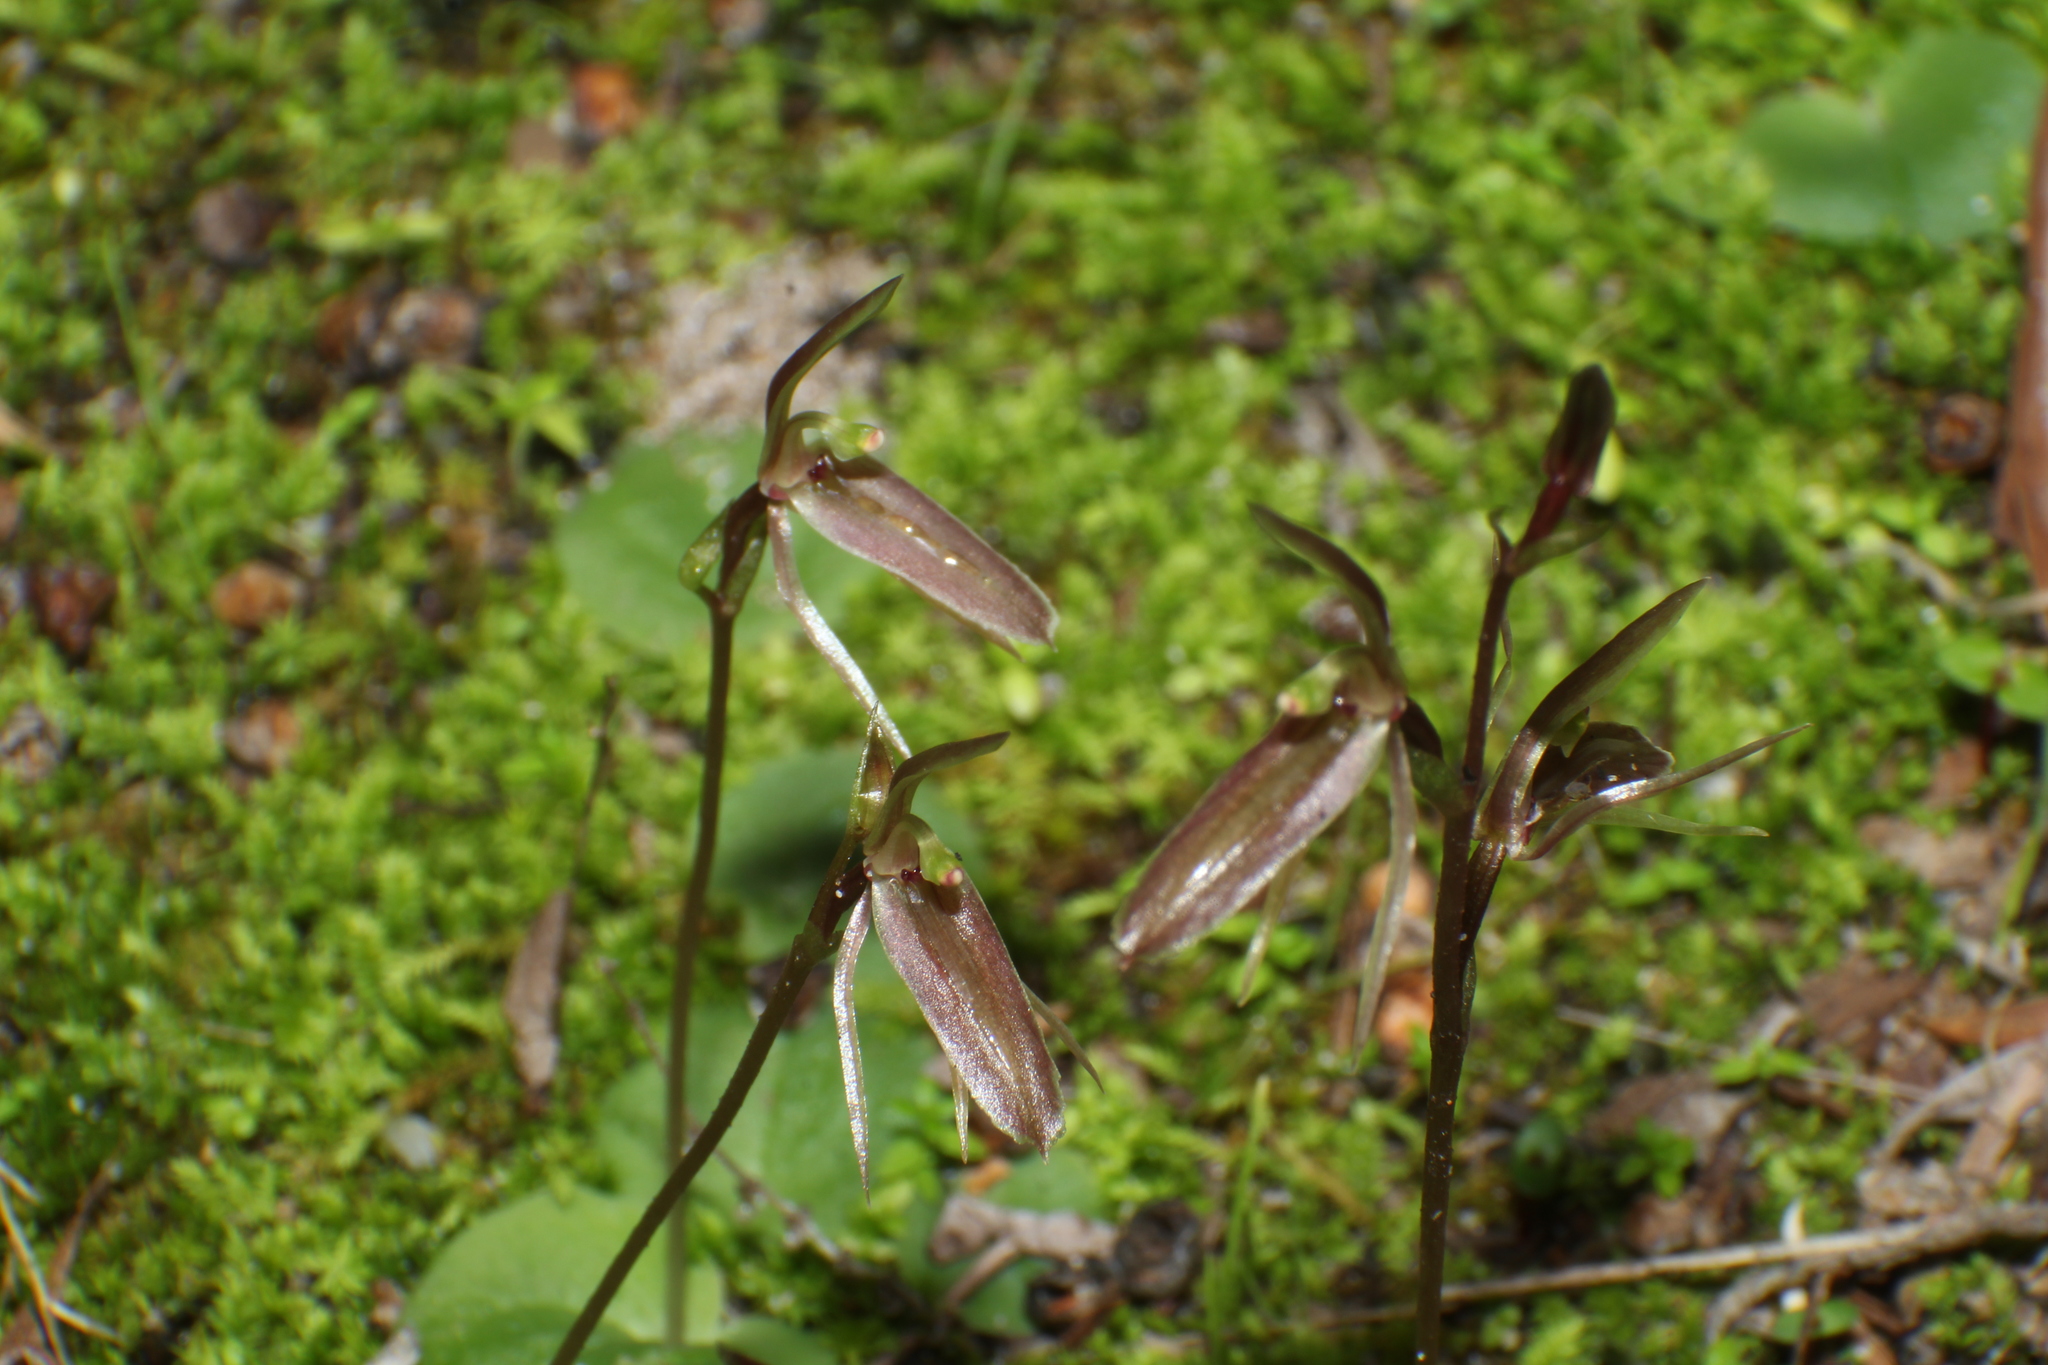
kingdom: Plantae
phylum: Tracheophyta
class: Liliopsida
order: Asparagales
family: Orchidaceae
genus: Cyrtostylis
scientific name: Cyrtostylis robusta
